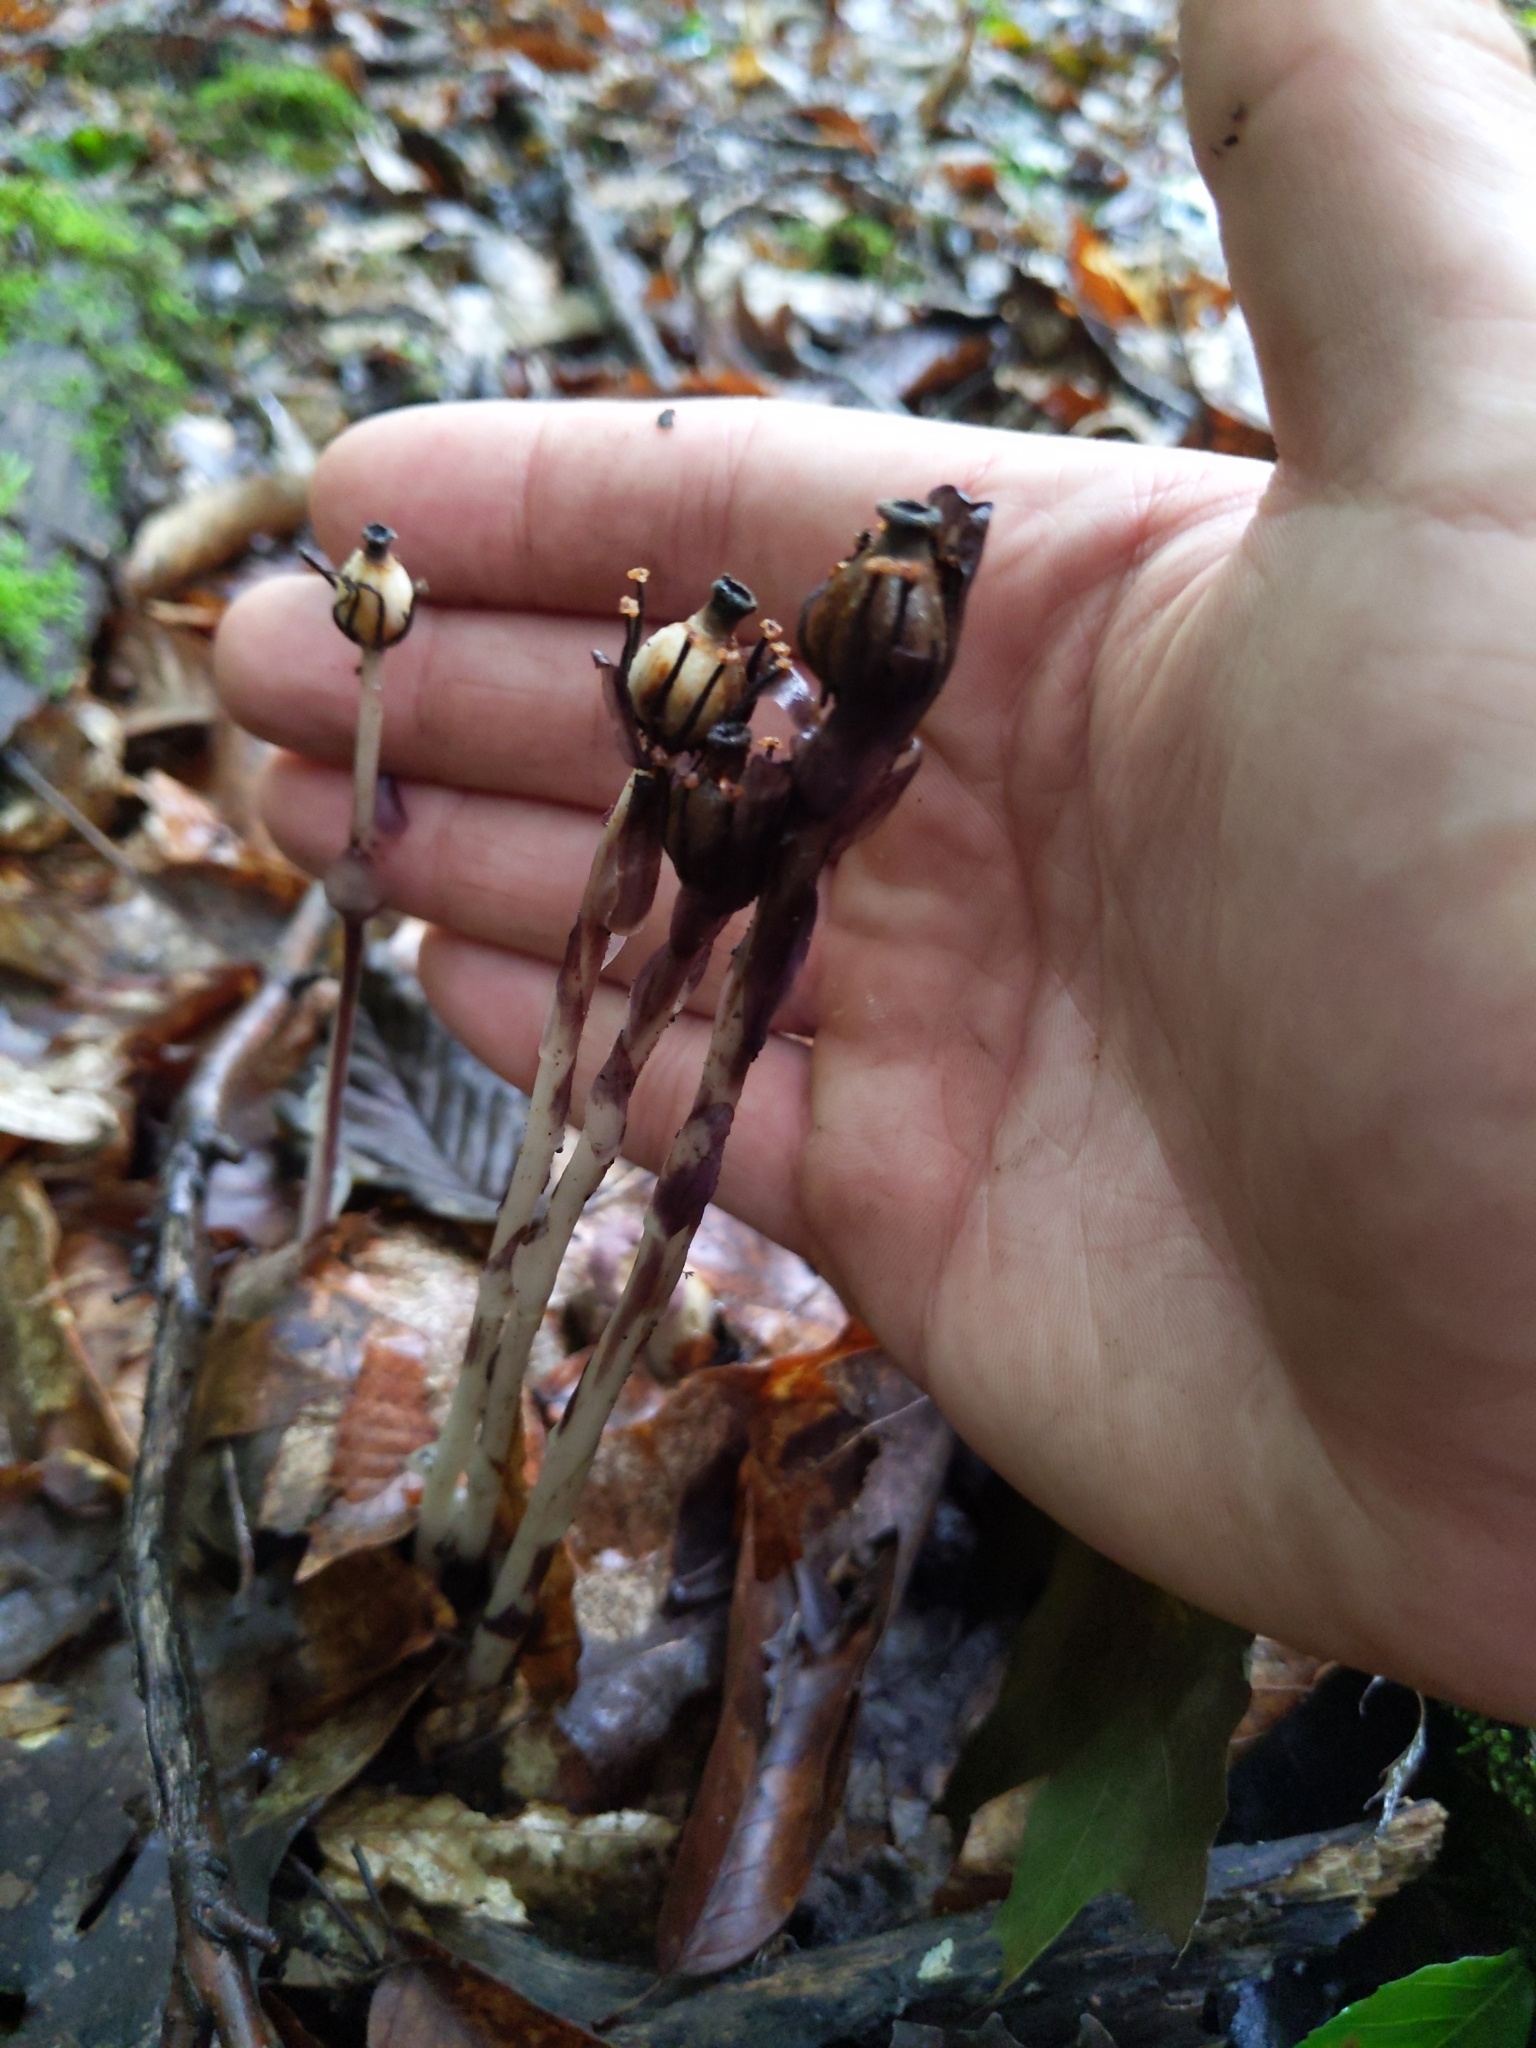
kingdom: Plantae
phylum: Tracheophyta
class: Magnoliopsida
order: Ericales
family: Ericaceae
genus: Monotropa
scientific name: Monotropa uniflora
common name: Convulsion root
